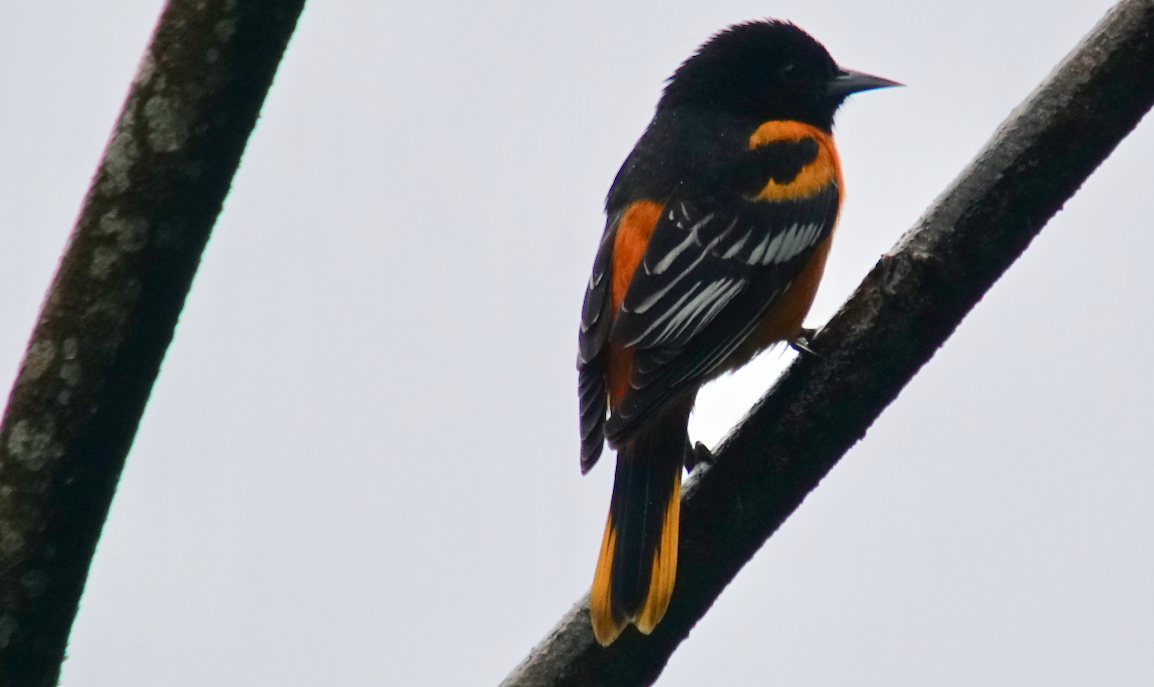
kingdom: Animalia
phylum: Chordata
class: Aves
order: Passeriformes
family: Icteridae
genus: Icterus
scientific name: Icterus galbula
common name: Baltimore oriole
